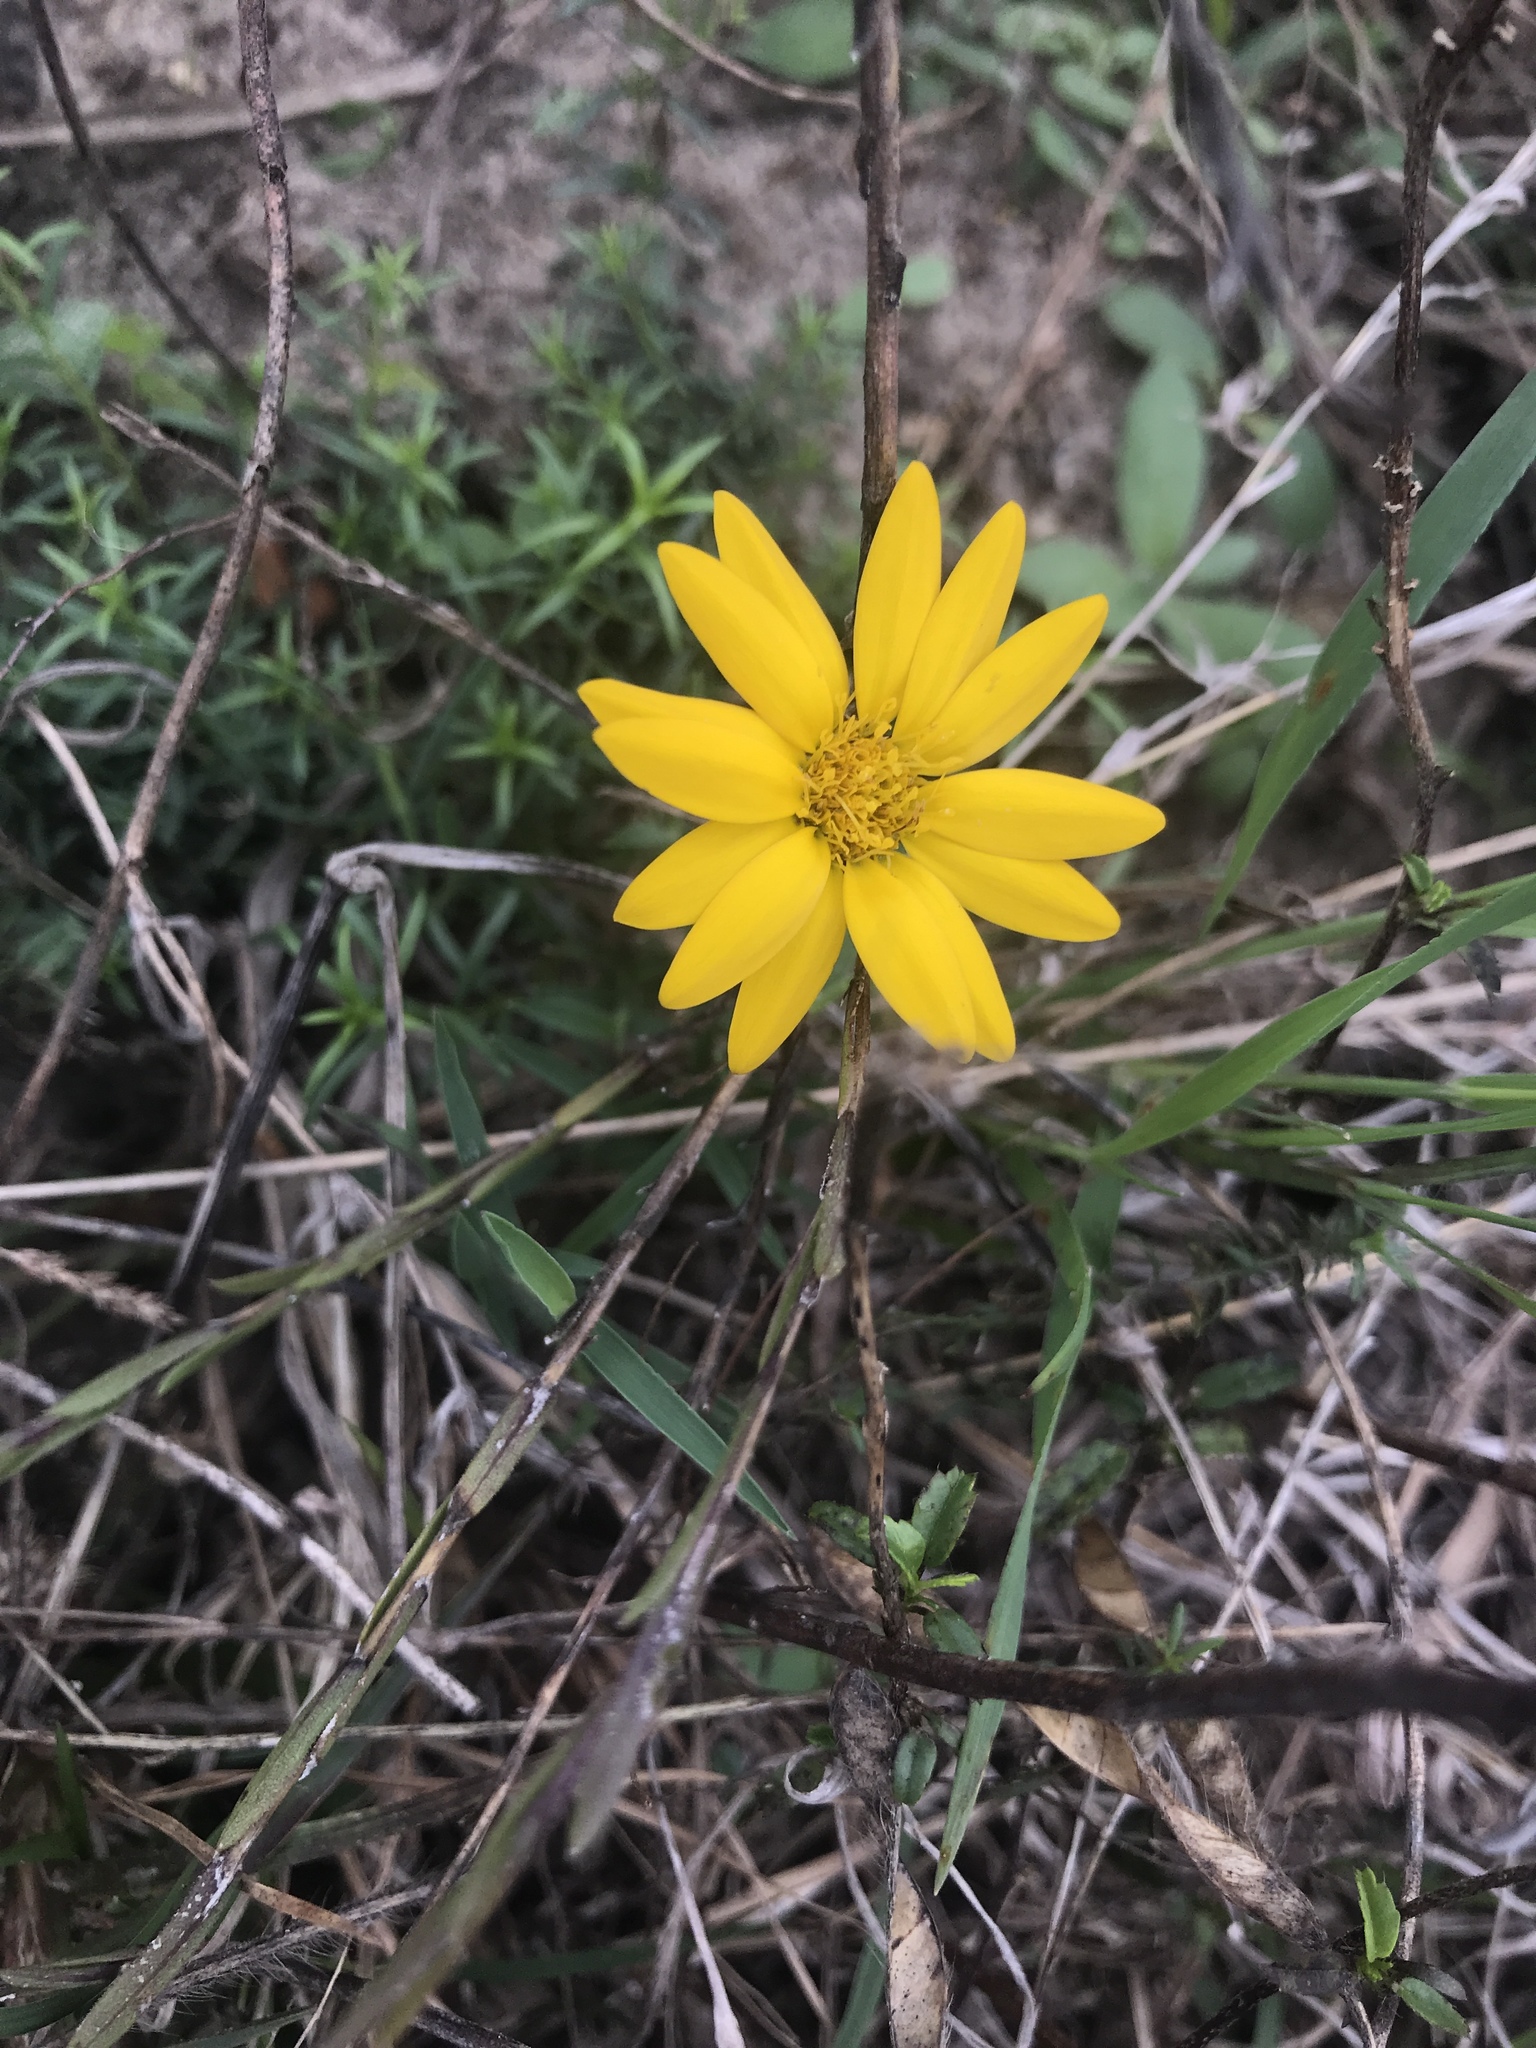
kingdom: Plantae
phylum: Tracheophyta
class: Magnoliopsida
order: Asterales
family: Asteraceae
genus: Heterotheca
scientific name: Heterotheca subaxillaris
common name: Camphorweed
